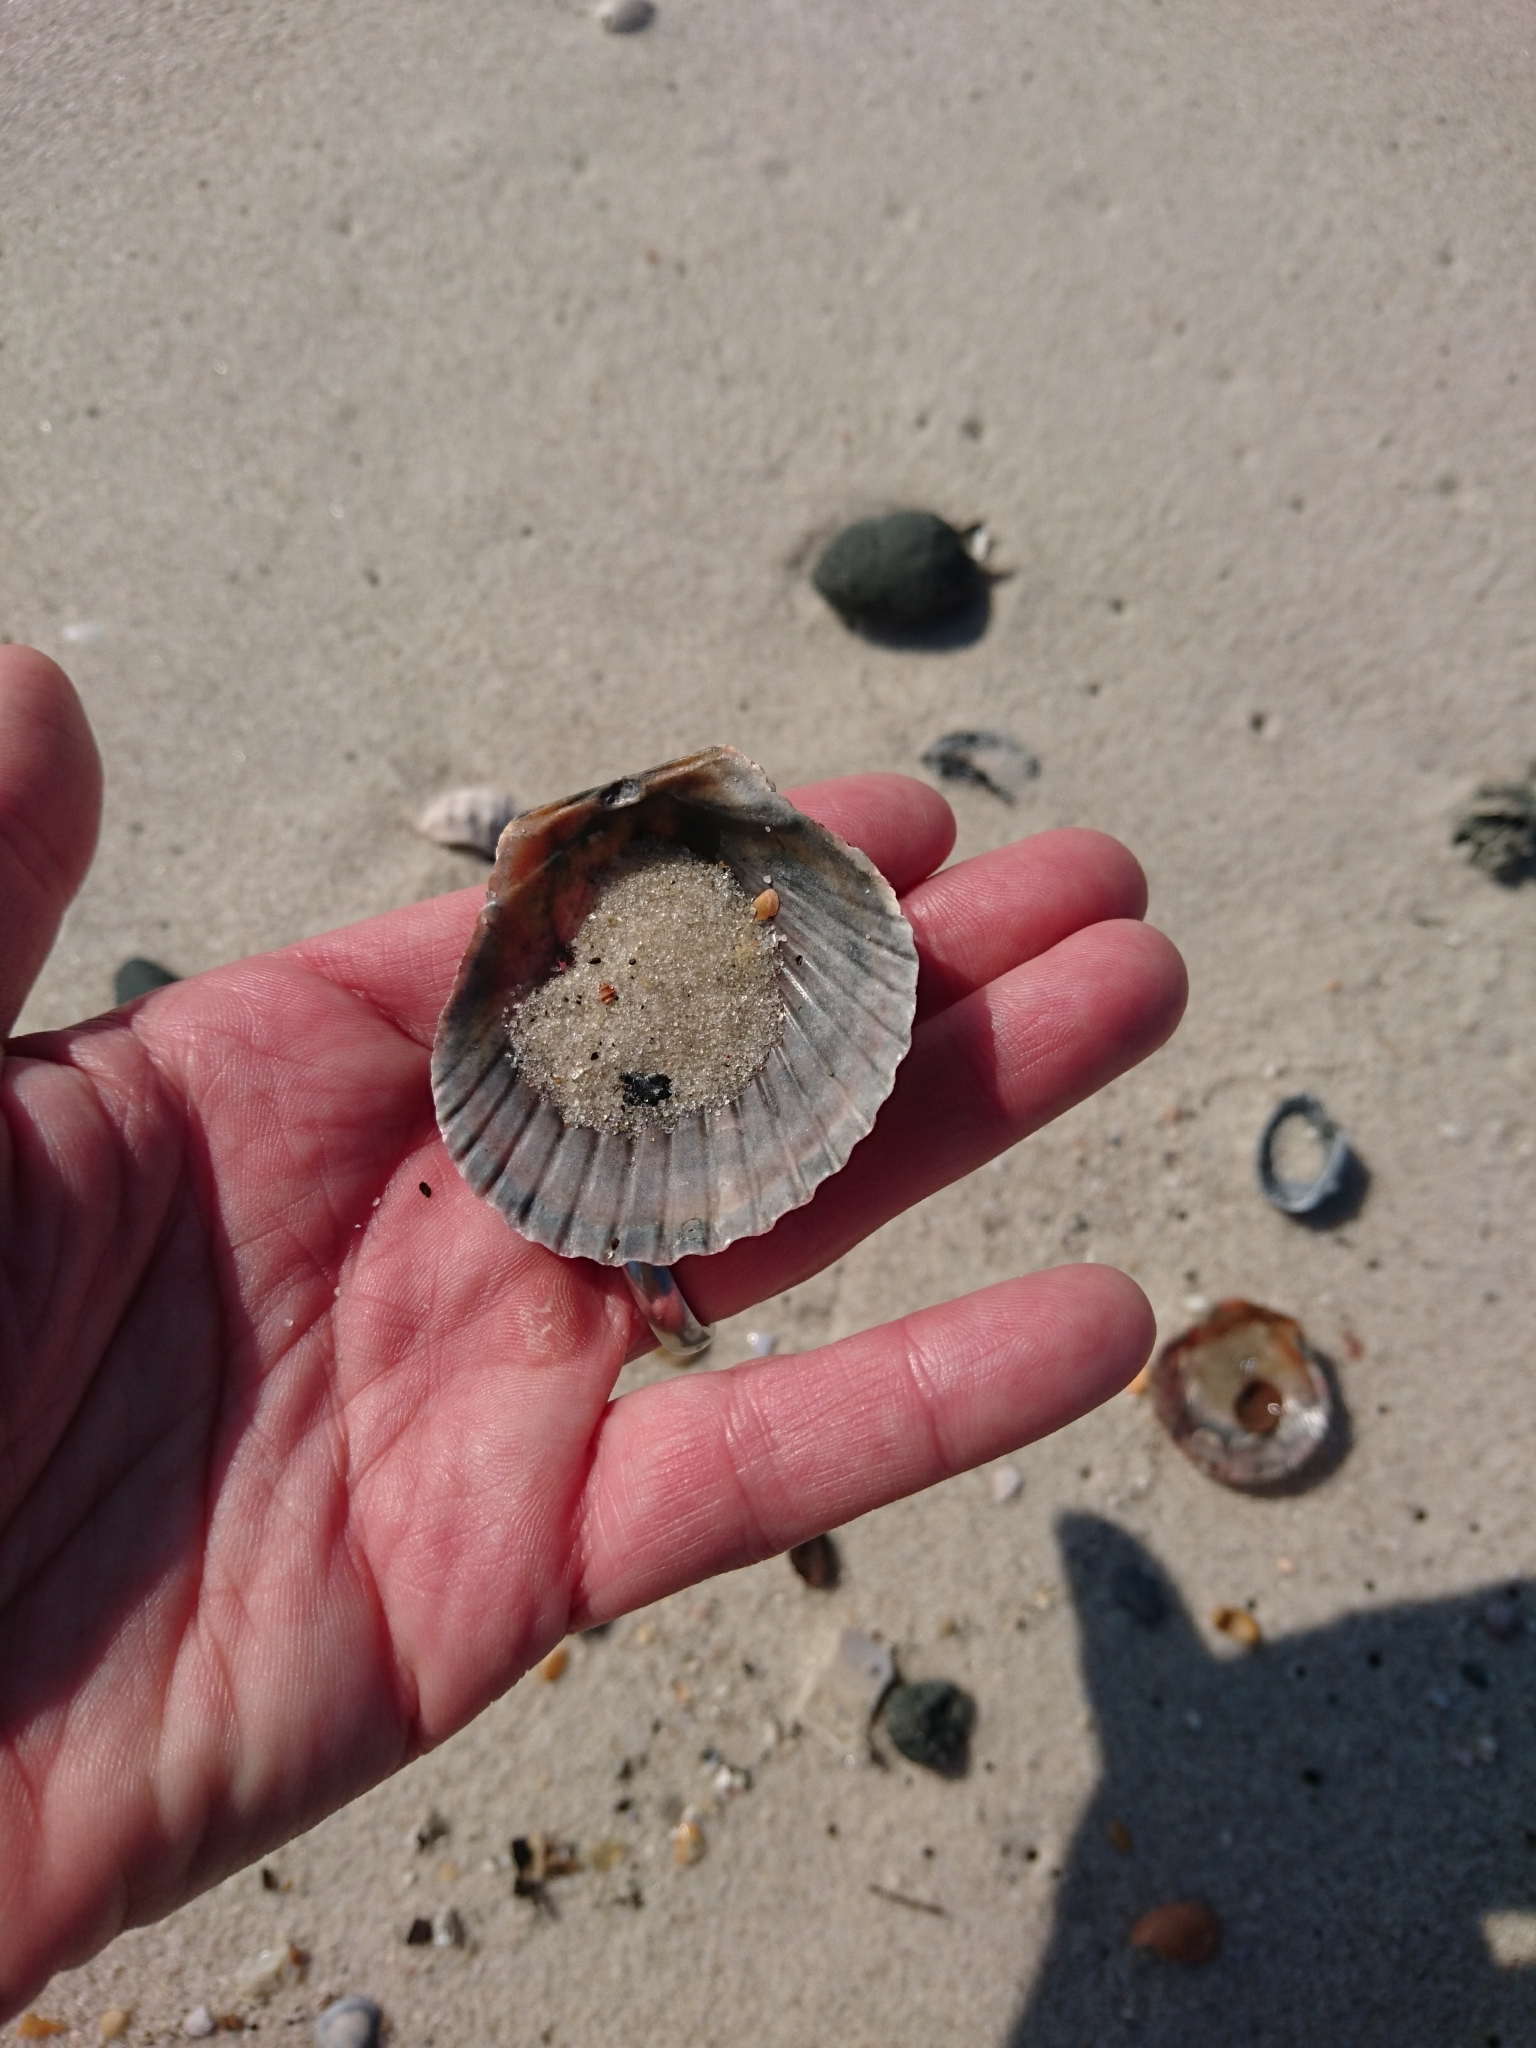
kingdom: Animalia
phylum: Mollusca
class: Bivalvia
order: Pectinida
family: Pectinidae
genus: Argopecten
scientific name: Argopecten irradians
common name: Atlantic bay scallop
